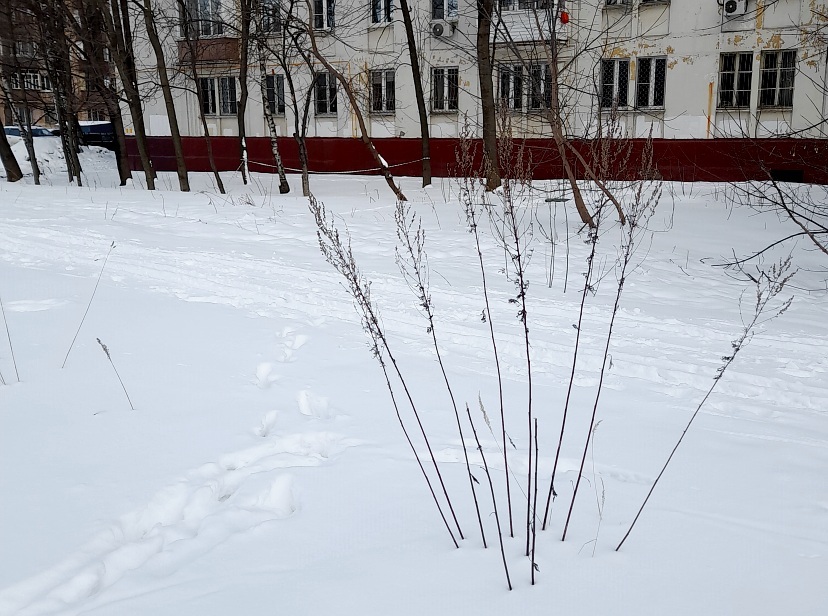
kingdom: Plantae
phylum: Tracheophyta
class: Magnoliopsida
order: Asterales
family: Asteraceae
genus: Artemisia
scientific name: Artemisia vulgaris
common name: Mugwort
